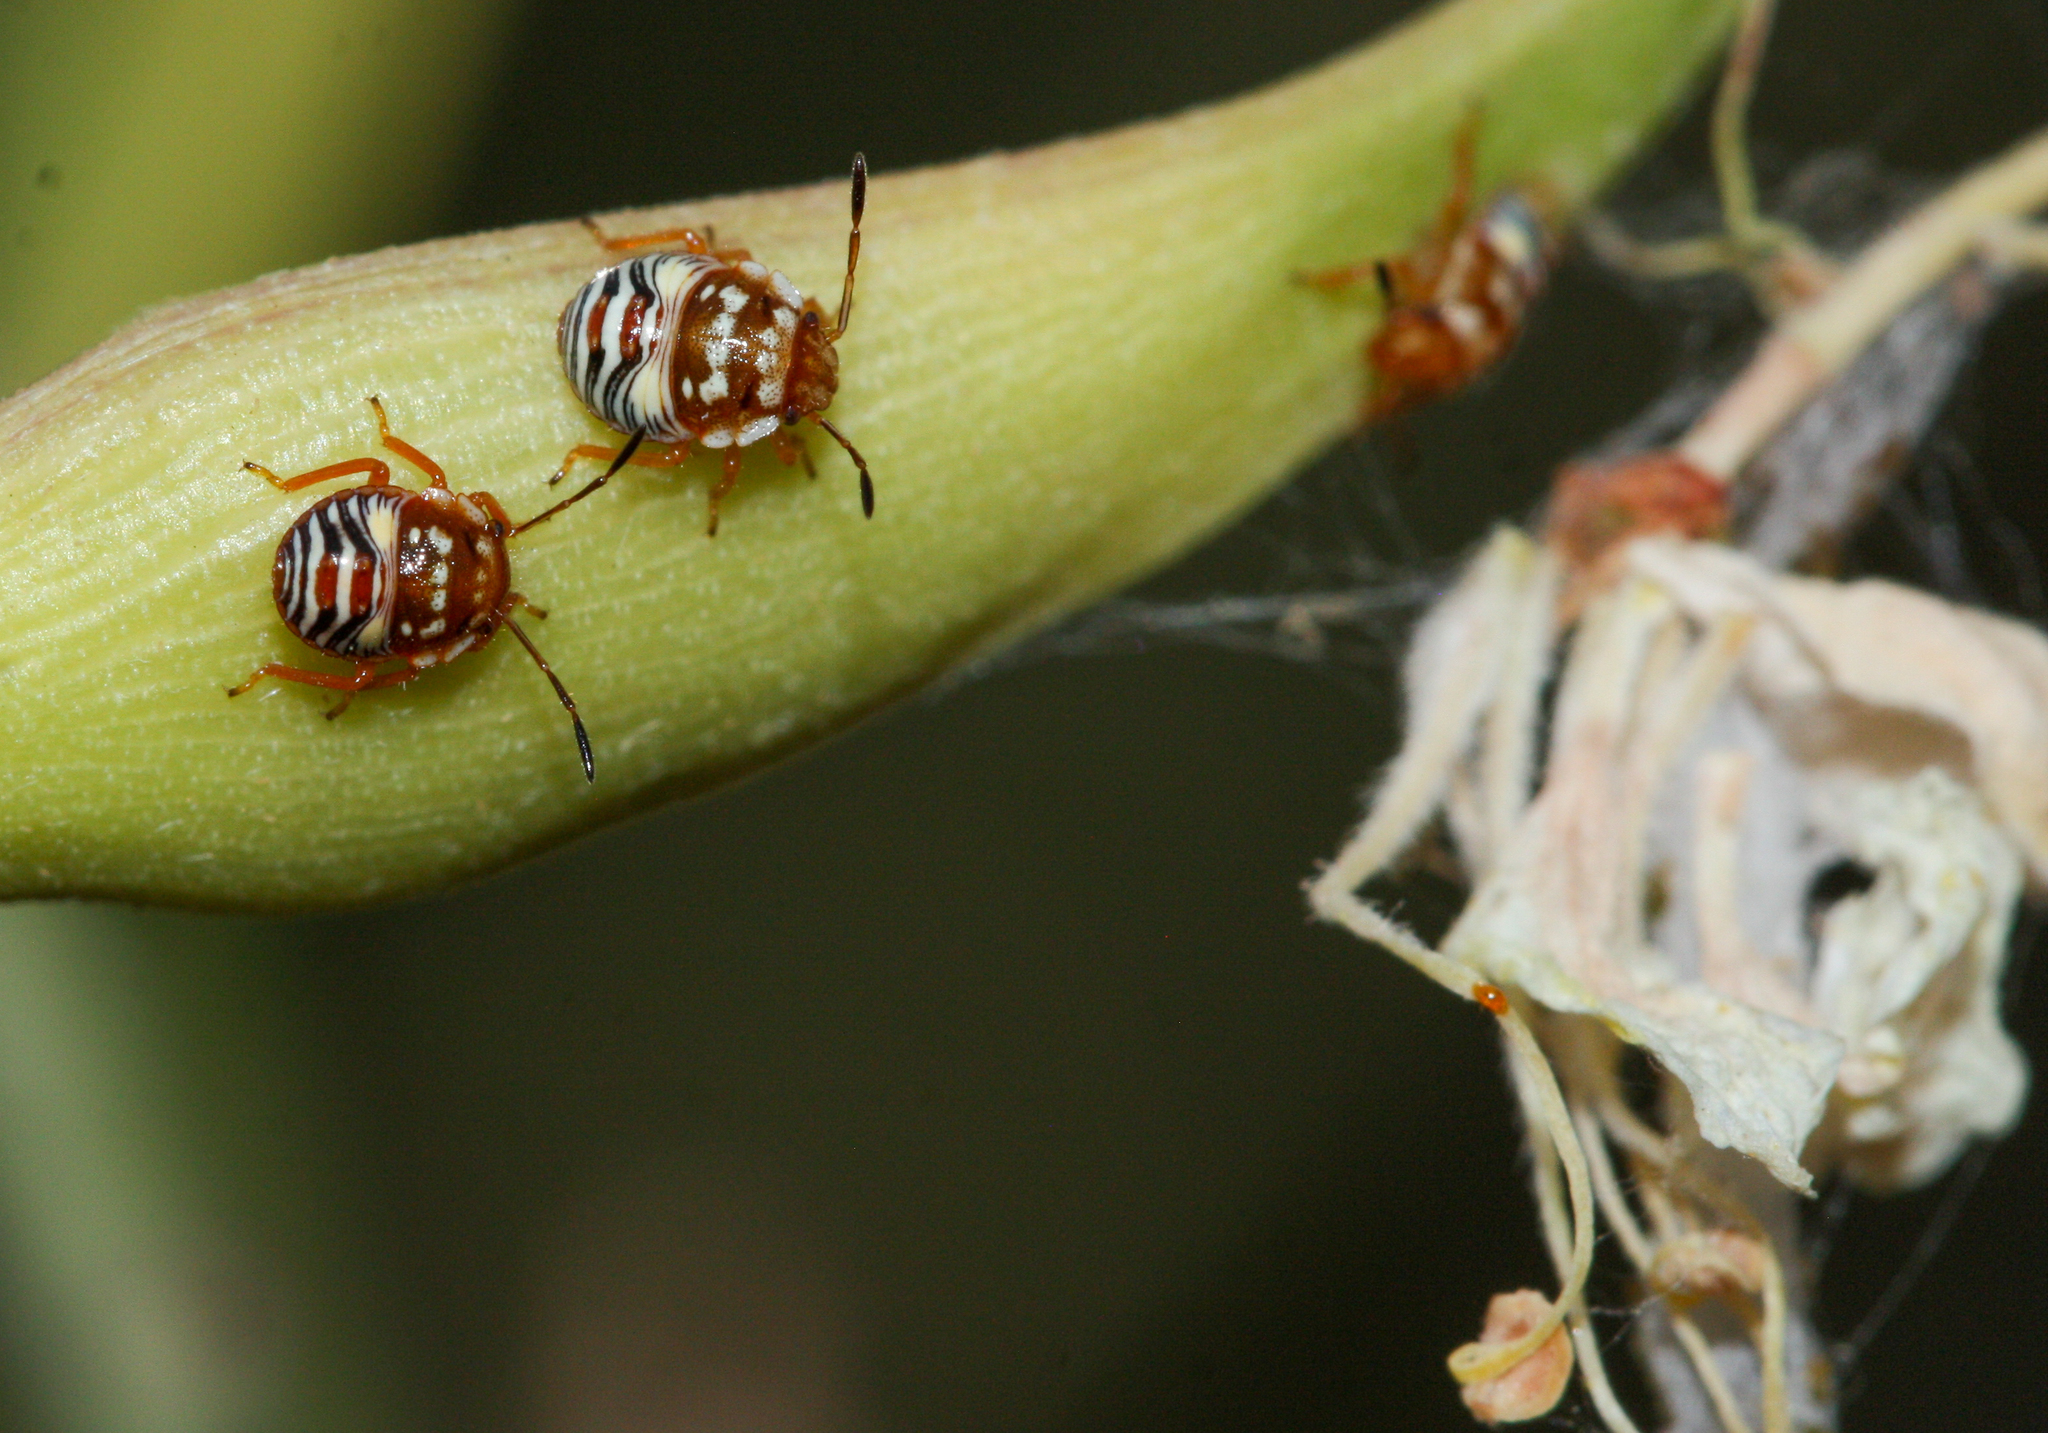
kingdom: Animalia
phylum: Arthropoda
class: Insecta
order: Hemiptera
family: Pentatomidae
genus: Thyanta
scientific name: Thyanta accerra
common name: Stink bug
